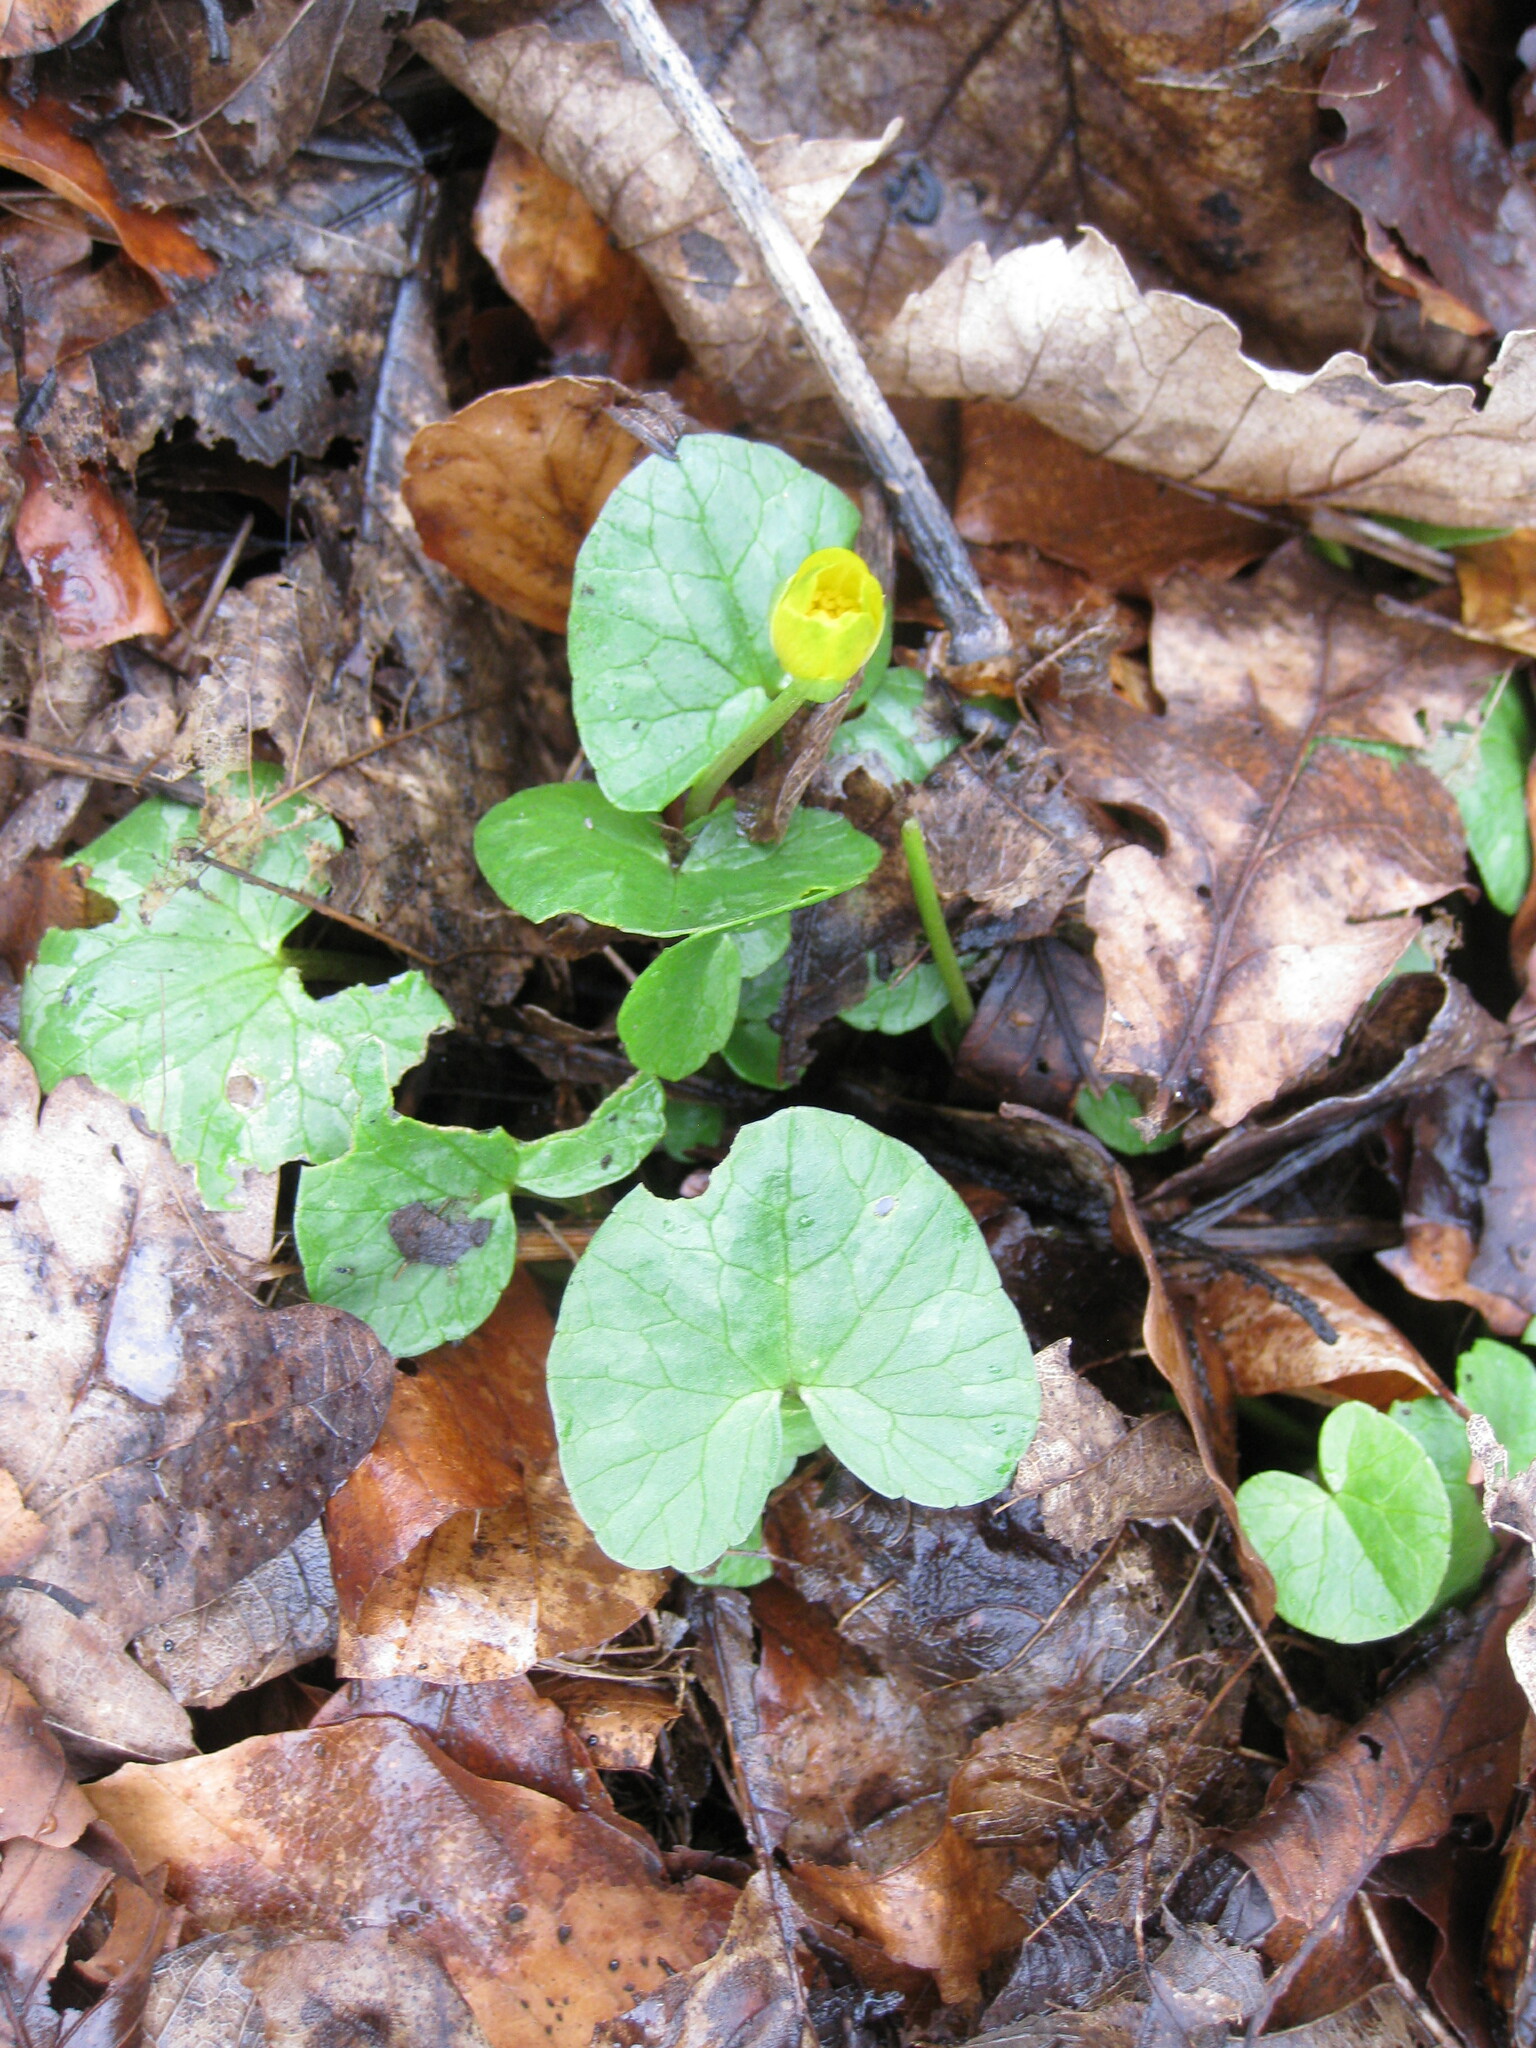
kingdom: Plantae
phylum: Tracheophyta
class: Magnoliopsida
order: Ranunculales
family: Ranunculaceae
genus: Ficaria
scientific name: Ficaria verna
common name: Lesser celandine
